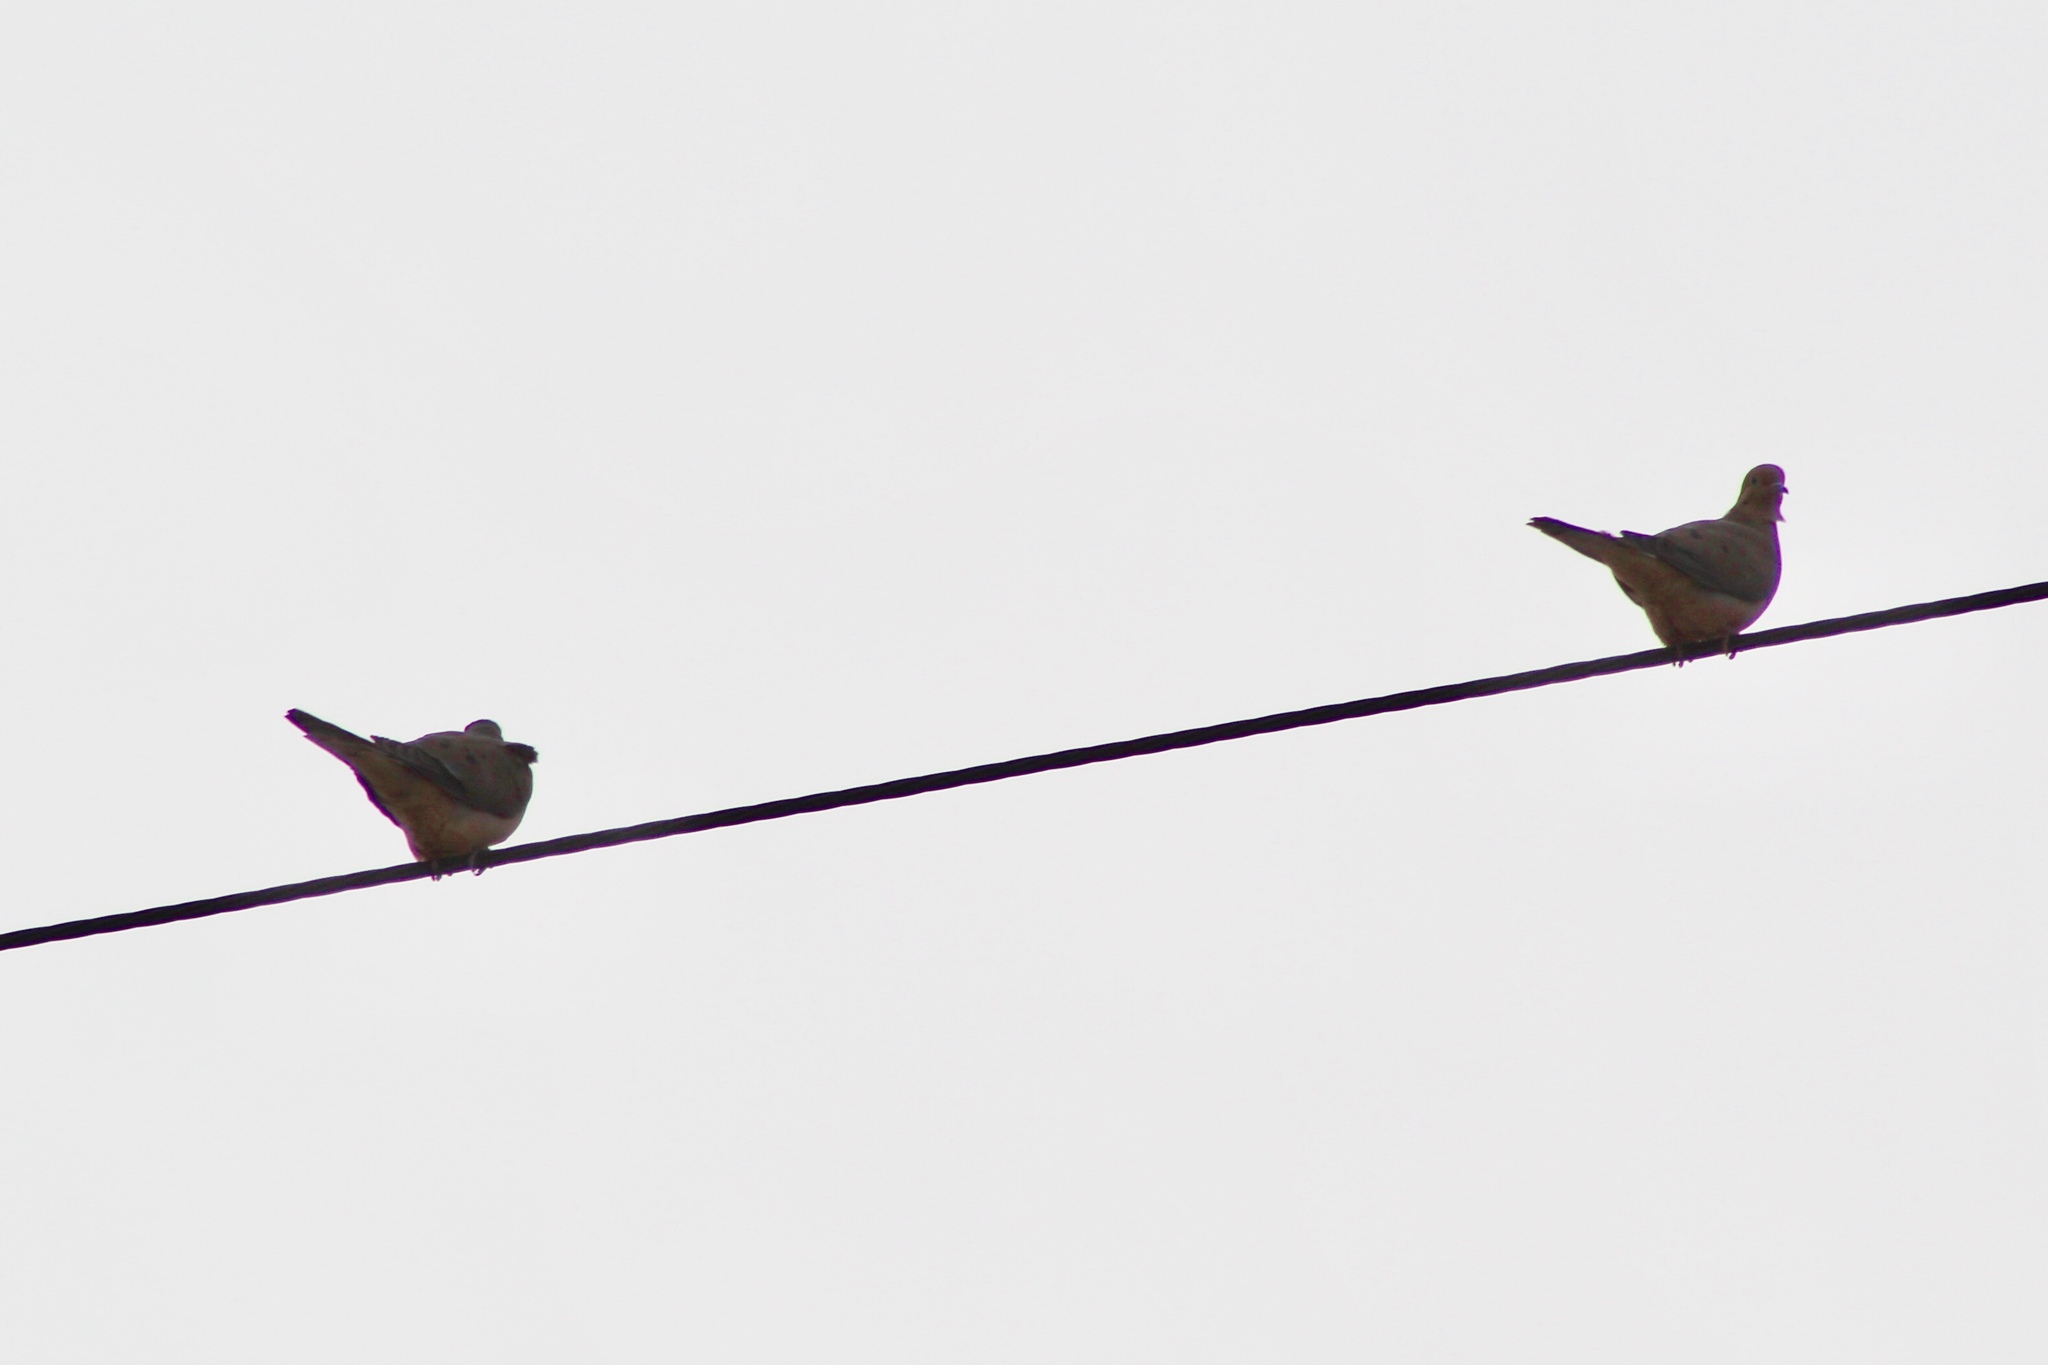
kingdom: Animalia
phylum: Chordata
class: Aves
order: Columbiformes
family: Columbidae
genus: Zenaida
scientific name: Zenaida macroura
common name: Mourning dove
